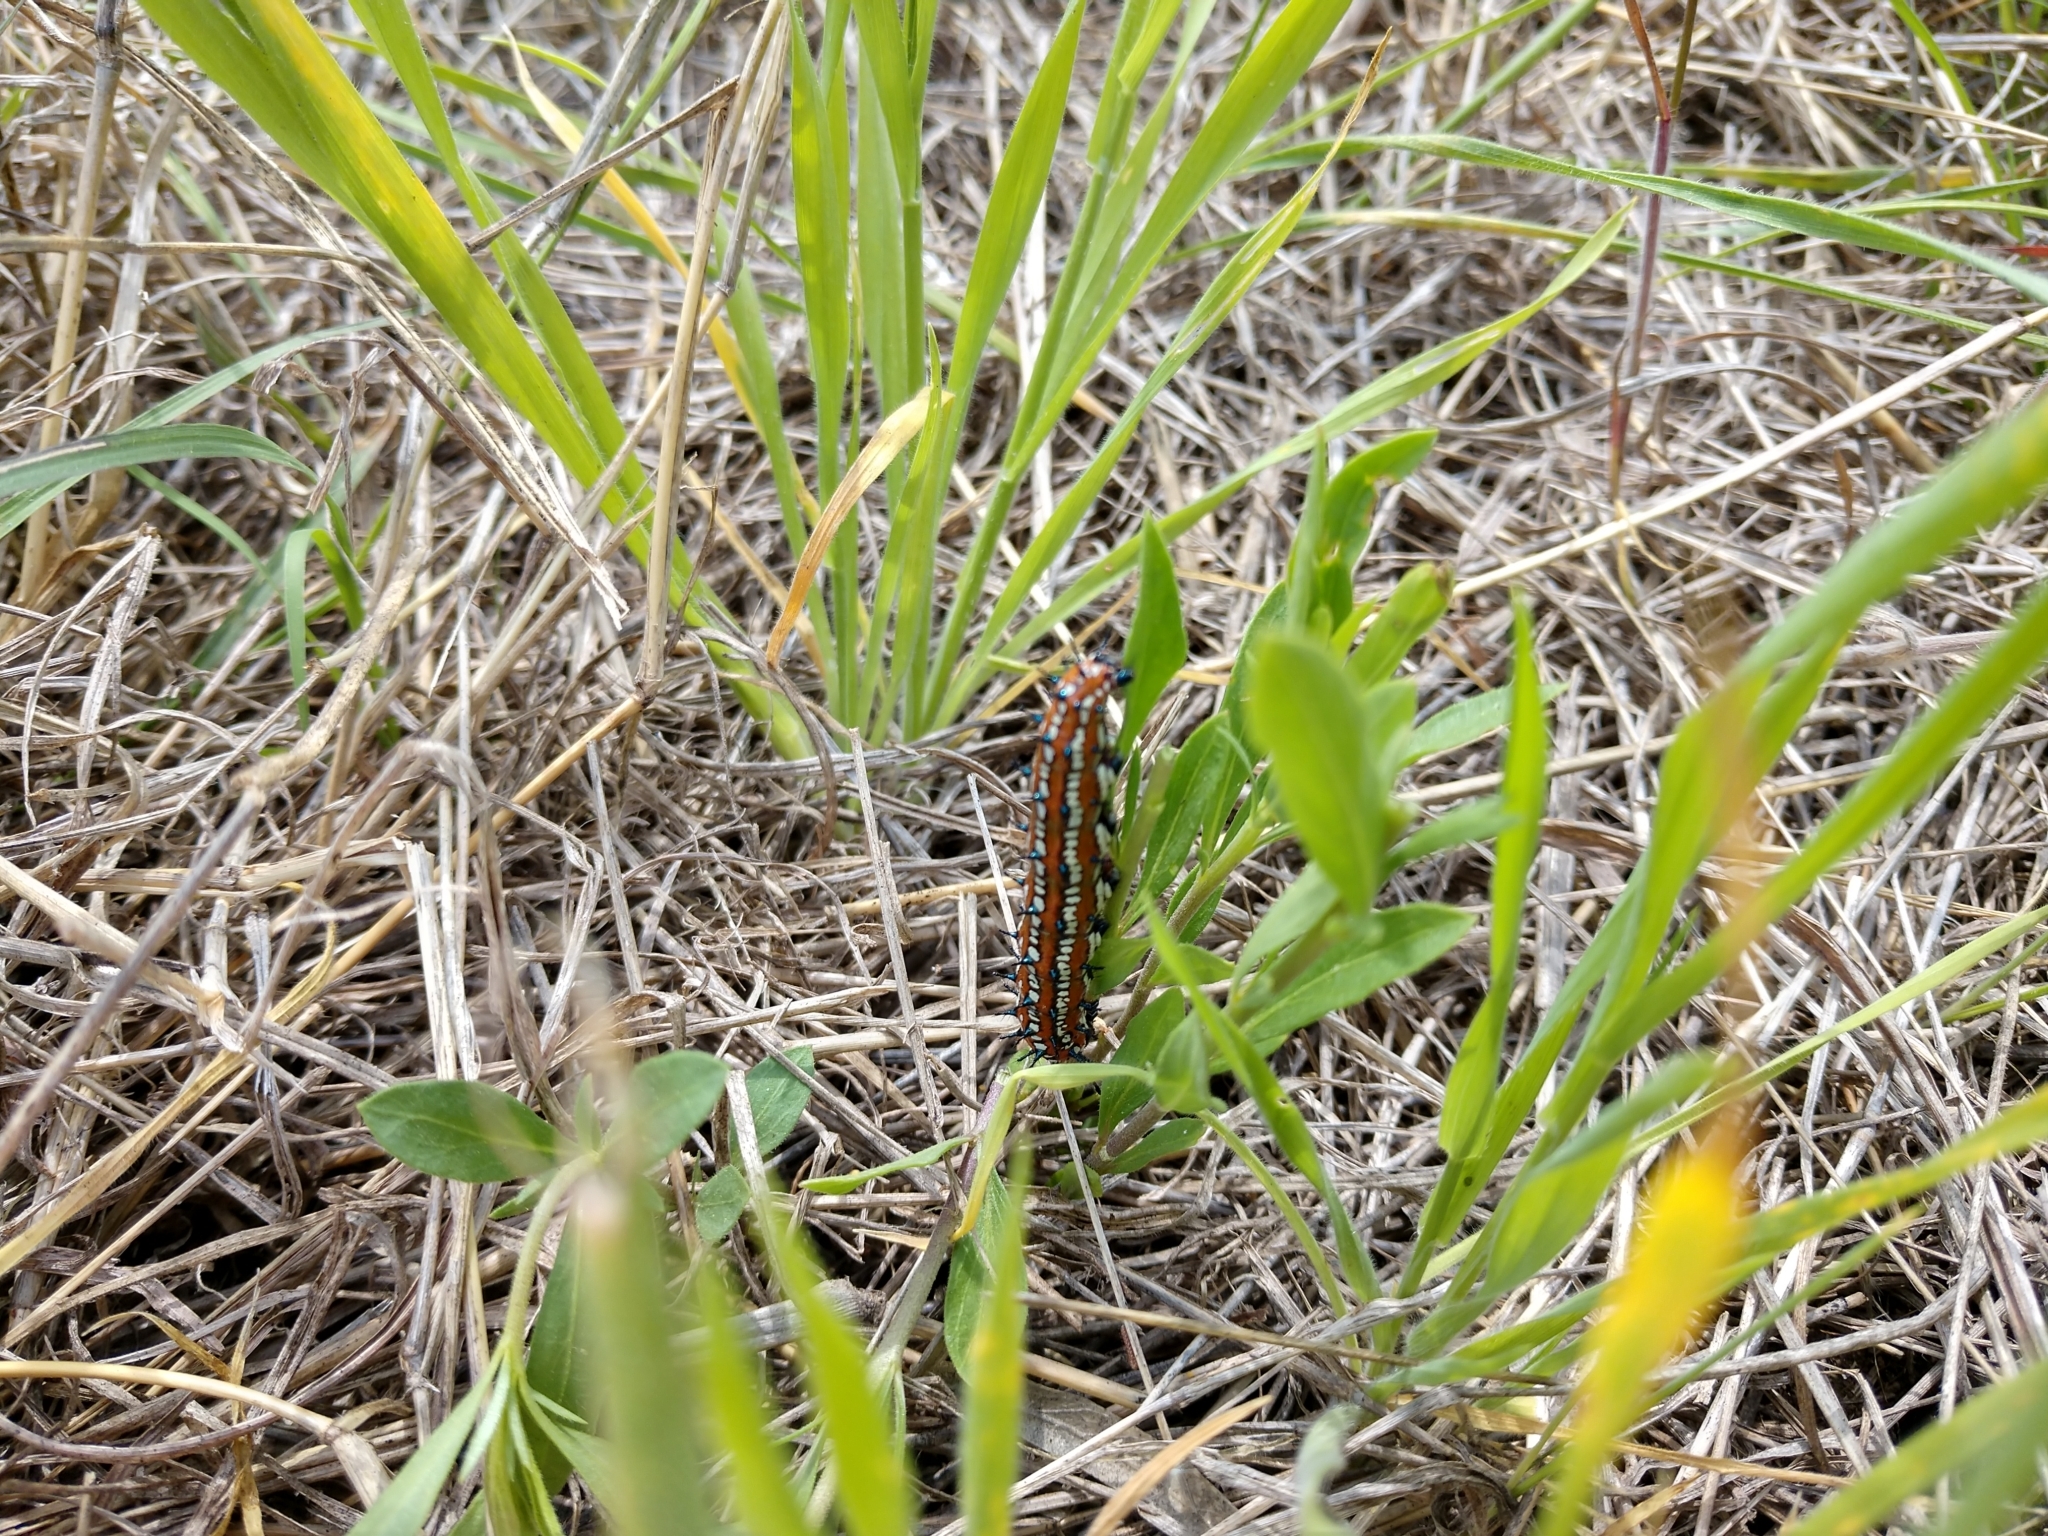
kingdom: Animalia
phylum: Arthropoda
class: Insecta
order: Lepidoptera
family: Nymphalidae
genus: Euptoieta
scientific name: Euptoieta claudia
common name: Variegated fritillary
